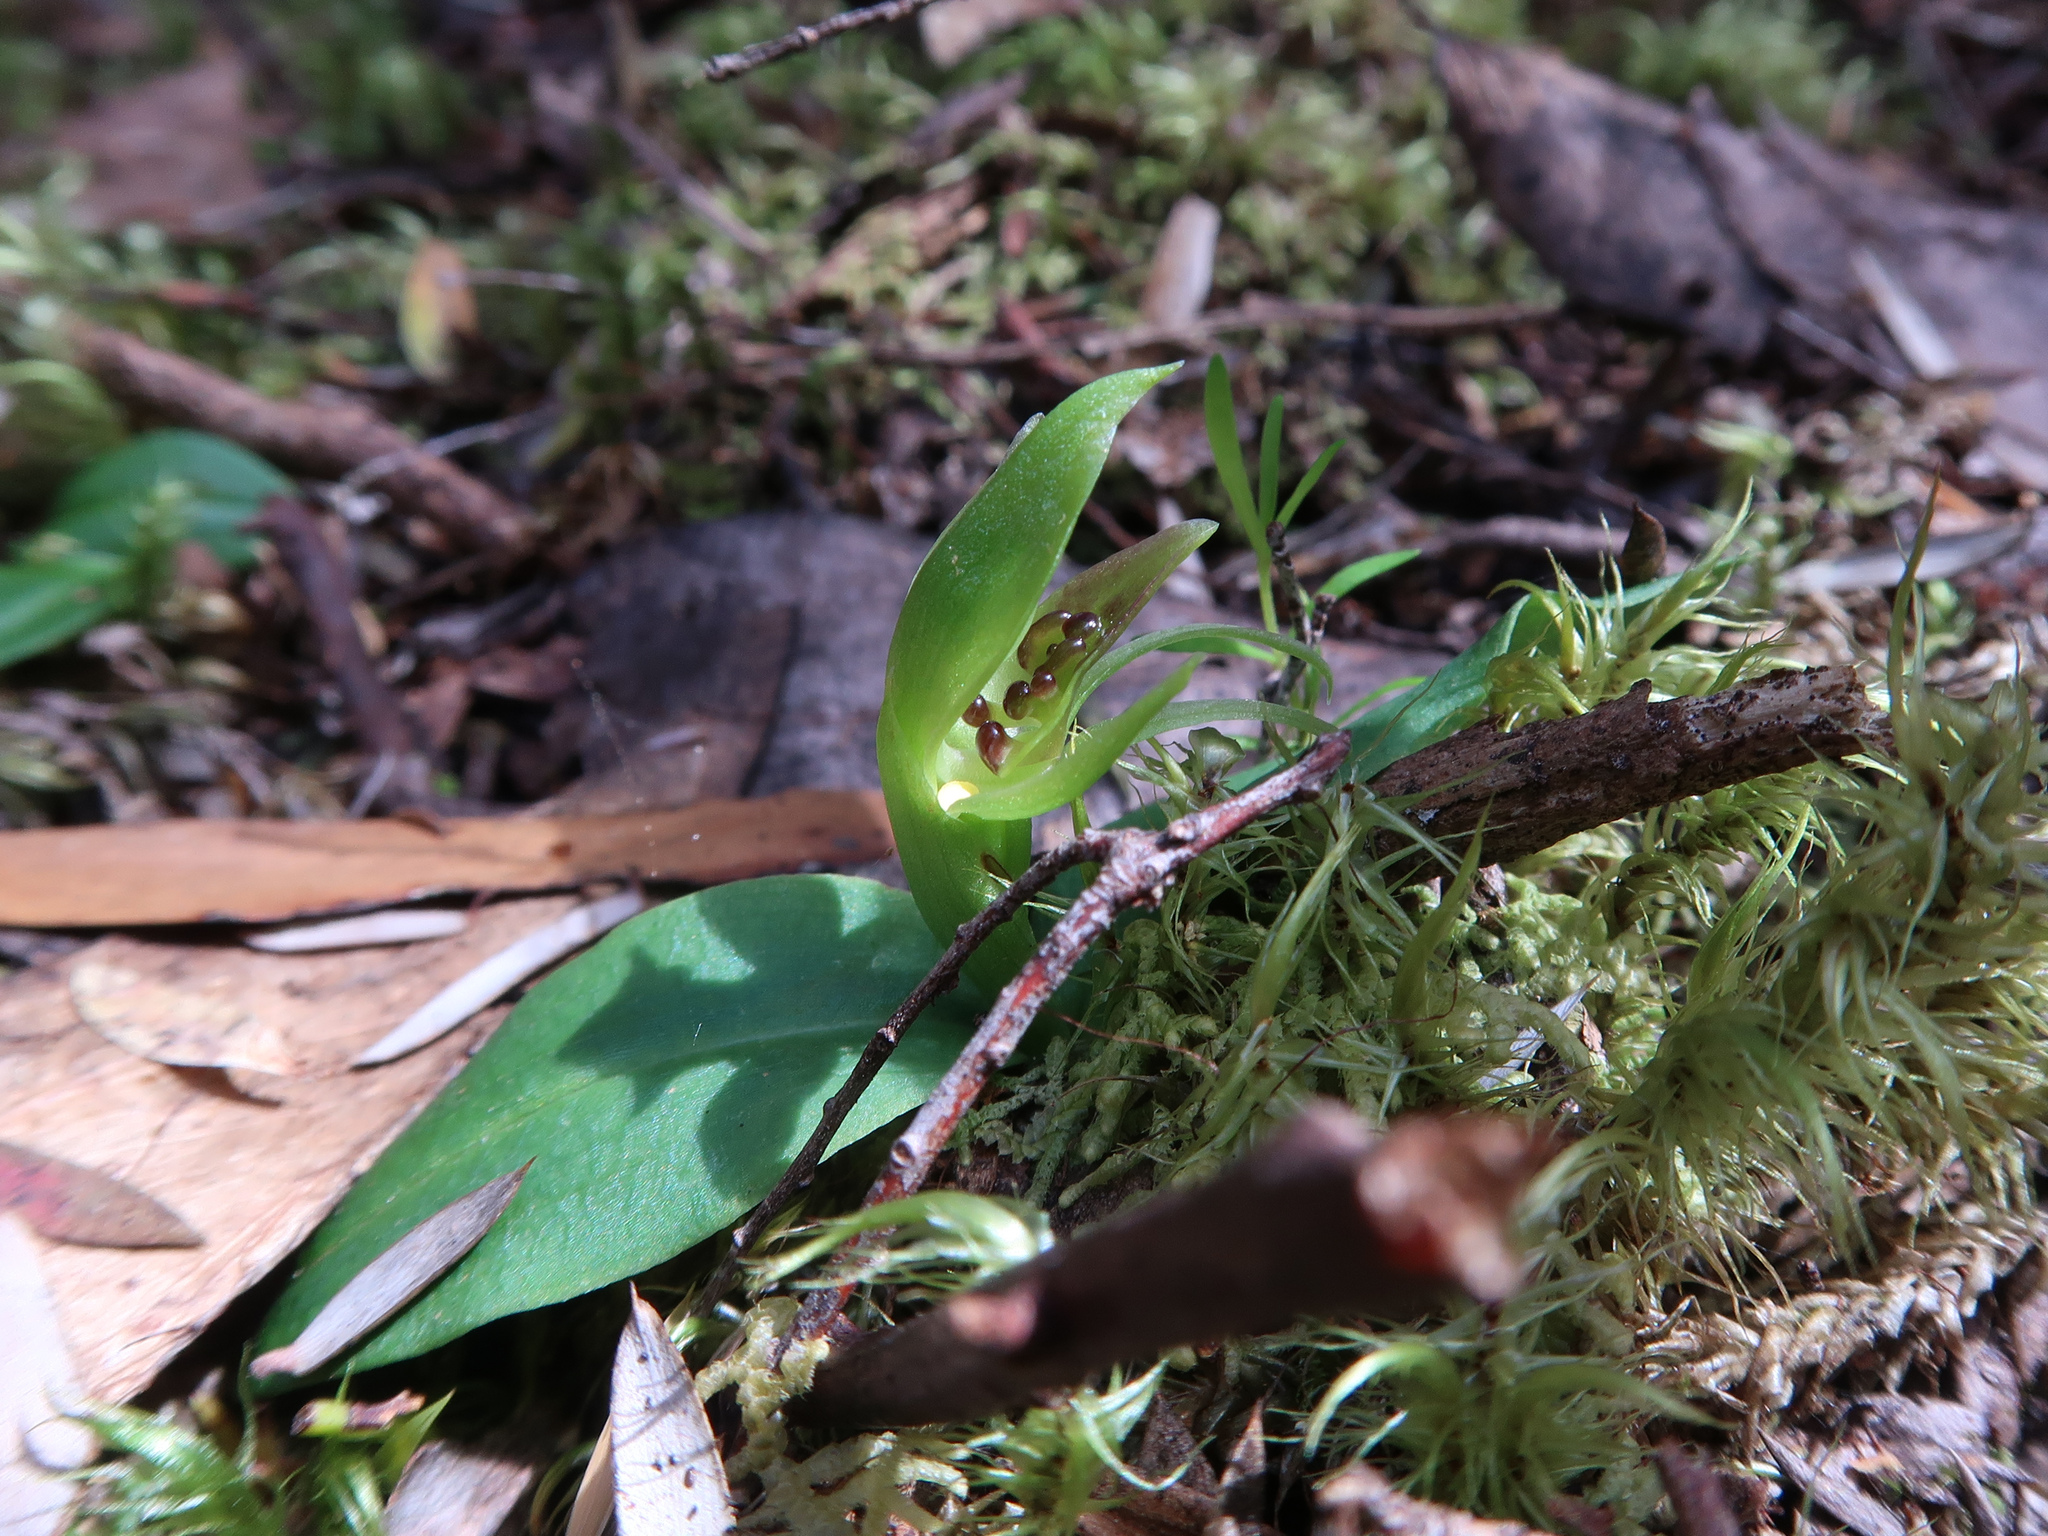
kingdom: Plantae
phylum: Tracheophyta
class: Liliopsida
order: Asparagales
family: Orchidaceae
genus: Chiloglottis
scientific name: Chiloglottis cornuta
